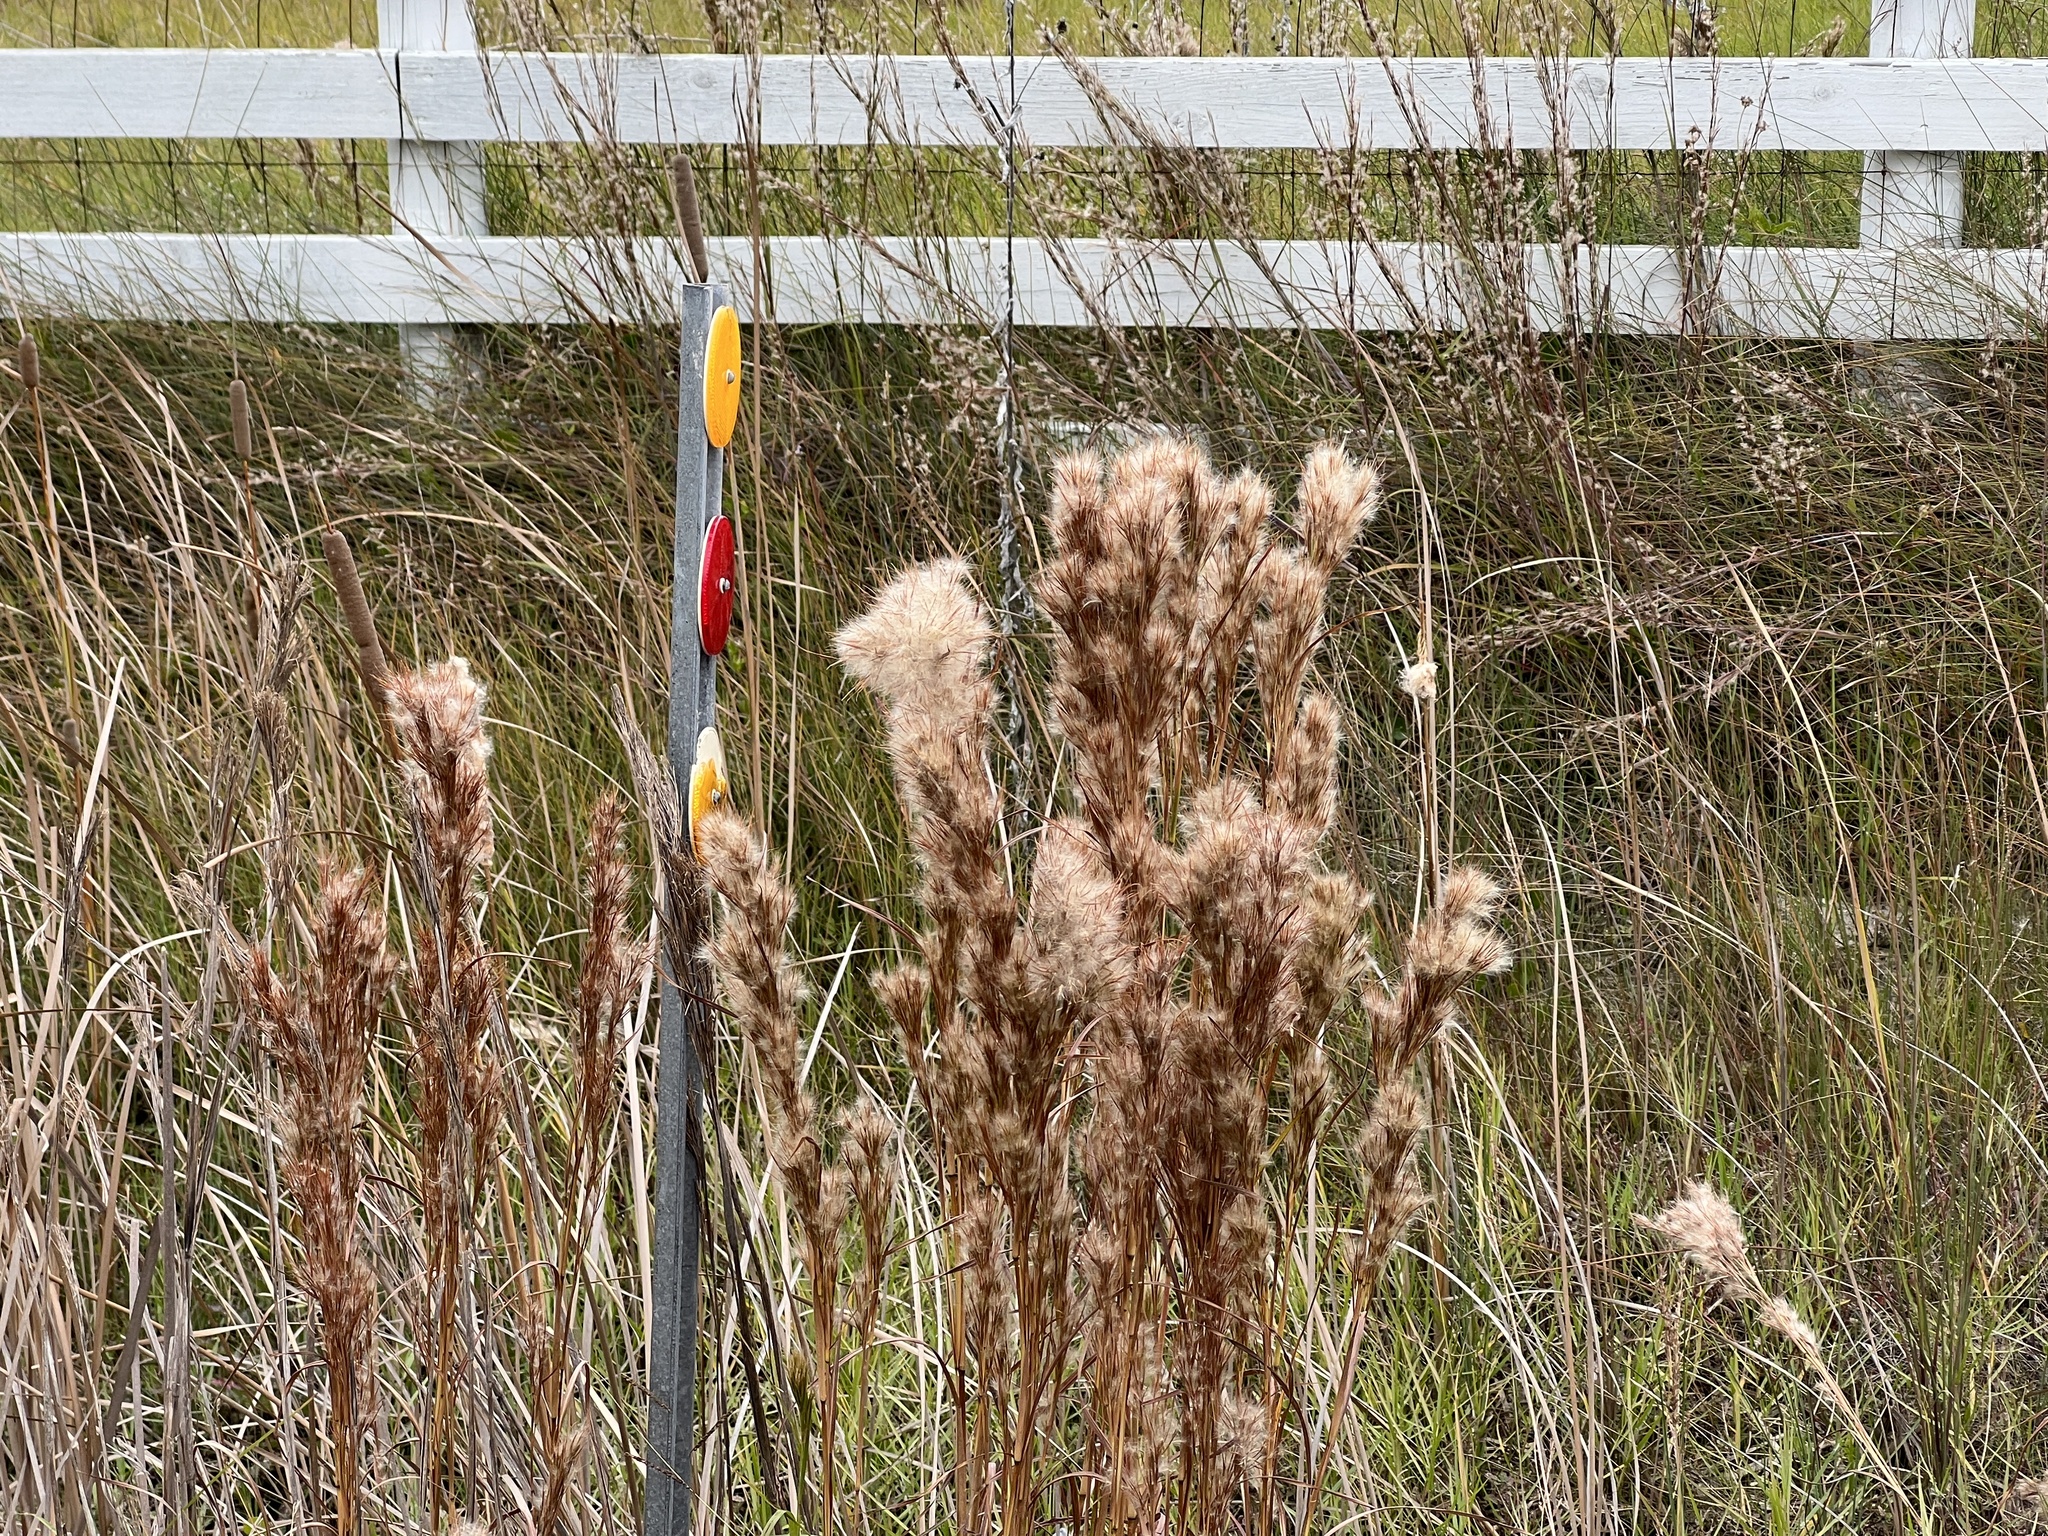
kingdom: Plantae
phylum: Tracheophyta
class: Liliopsida
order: Poales
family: Poaceae
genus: Andropogon
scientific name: Andropogon tenuispatheus
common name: Bushy bluestem
